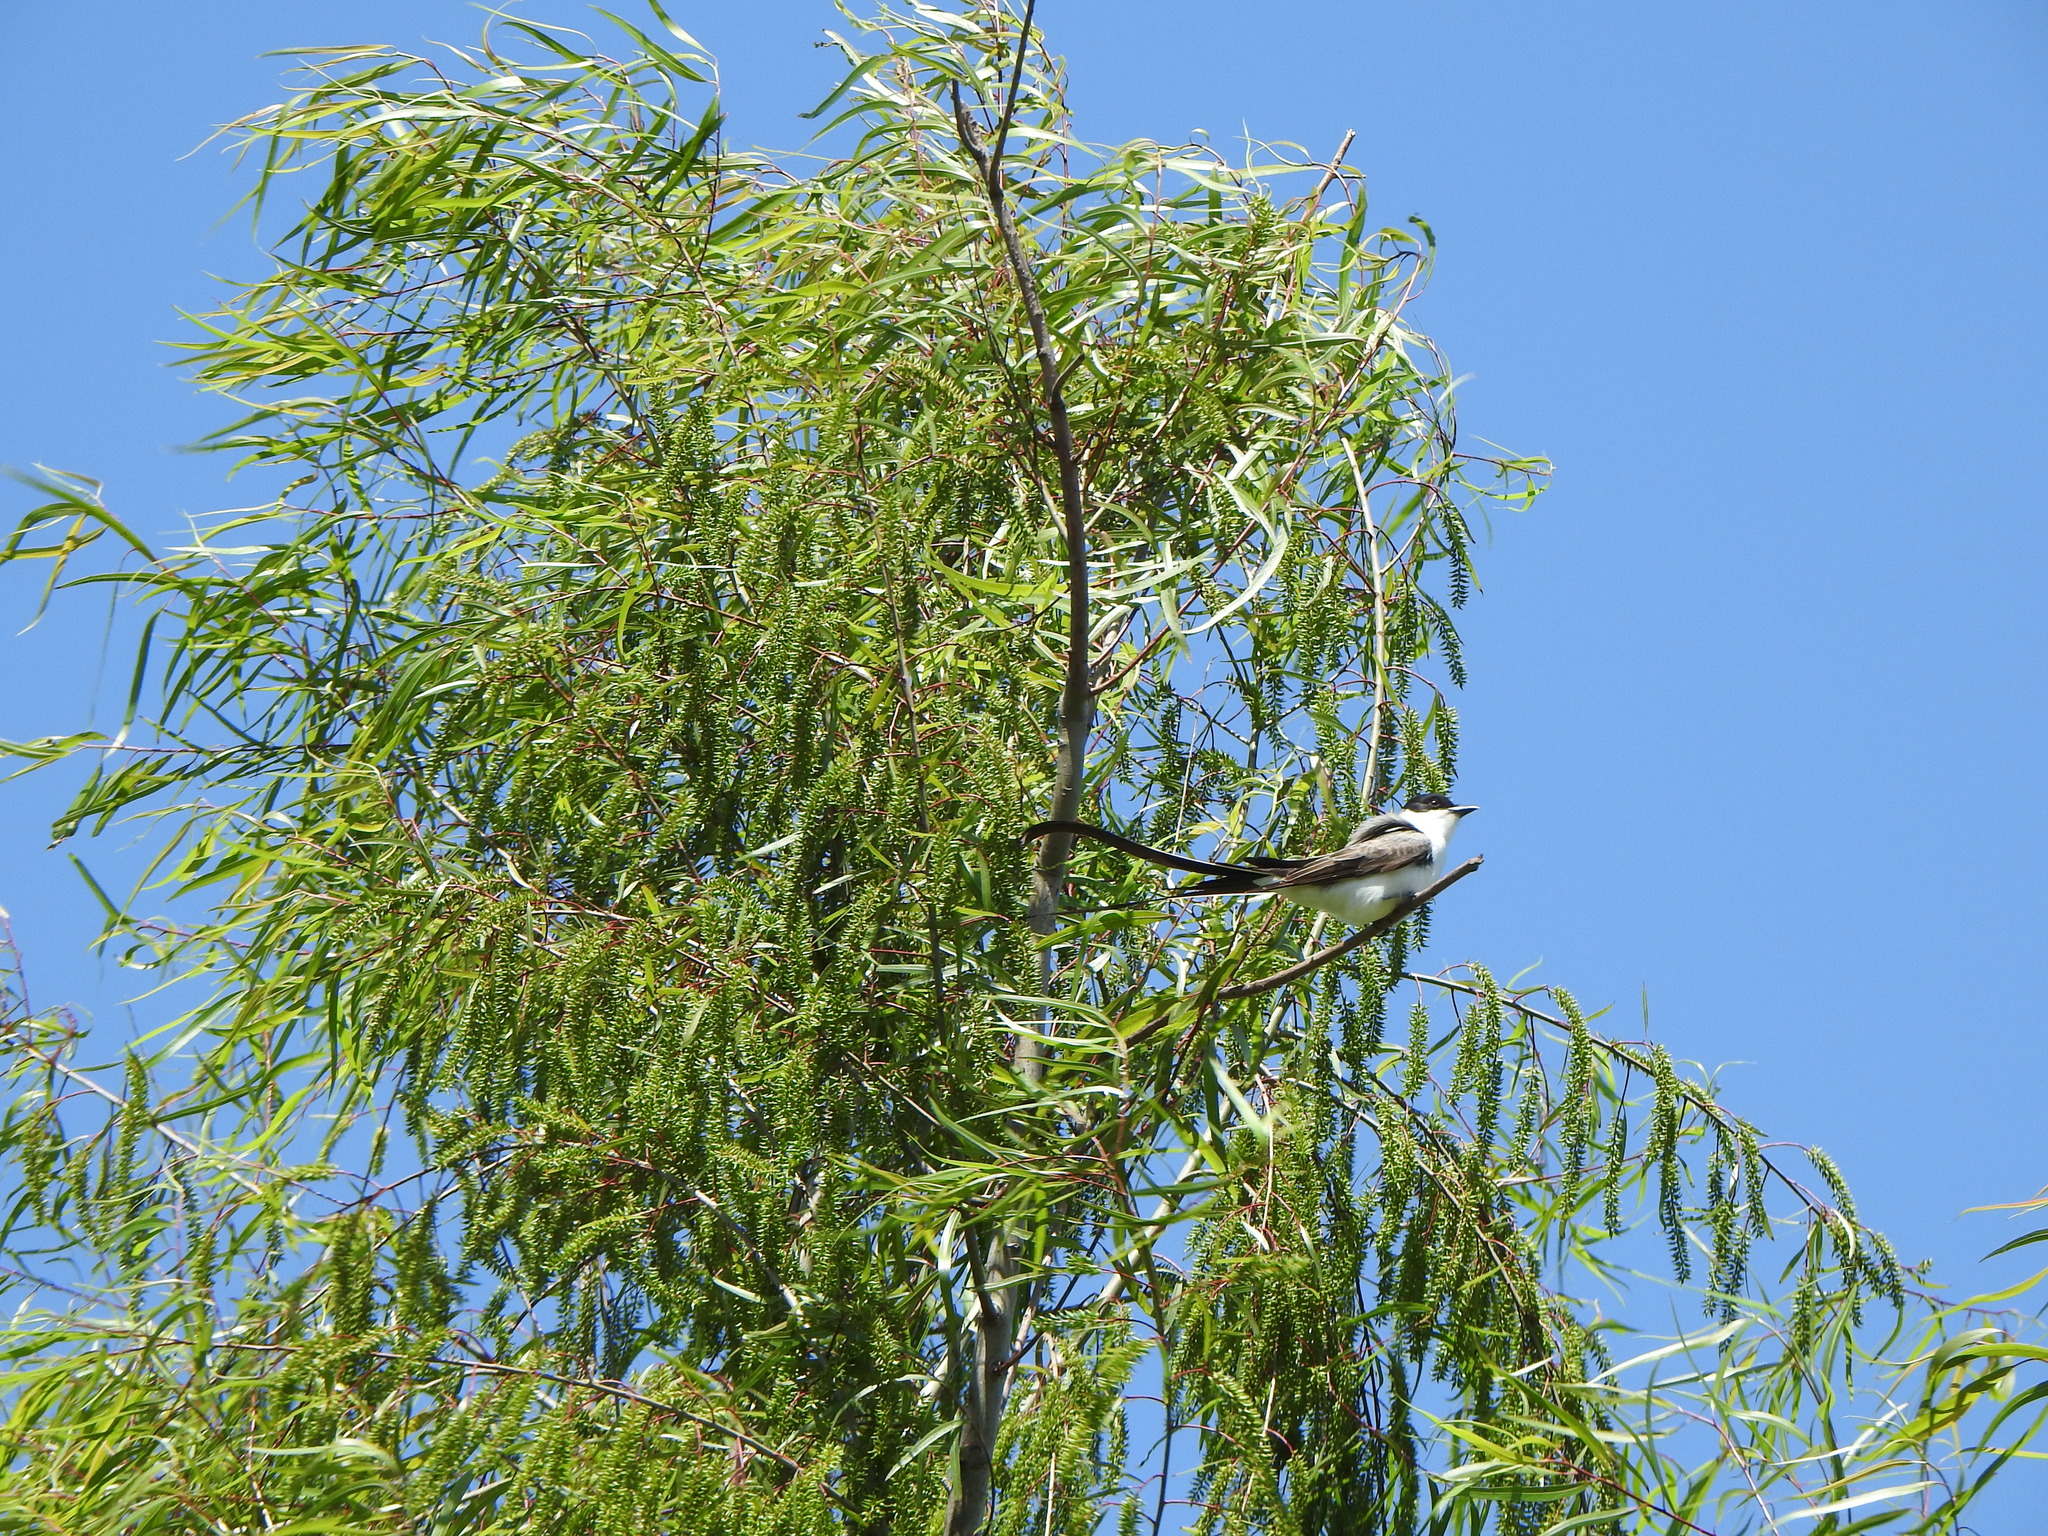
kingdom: Animalia
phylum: Chordata
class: Aves
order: Passeriformes
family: Tyrannidae
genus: Tyrannus
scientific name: Tyrannus savana
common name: Fork-tailed flycatcher
